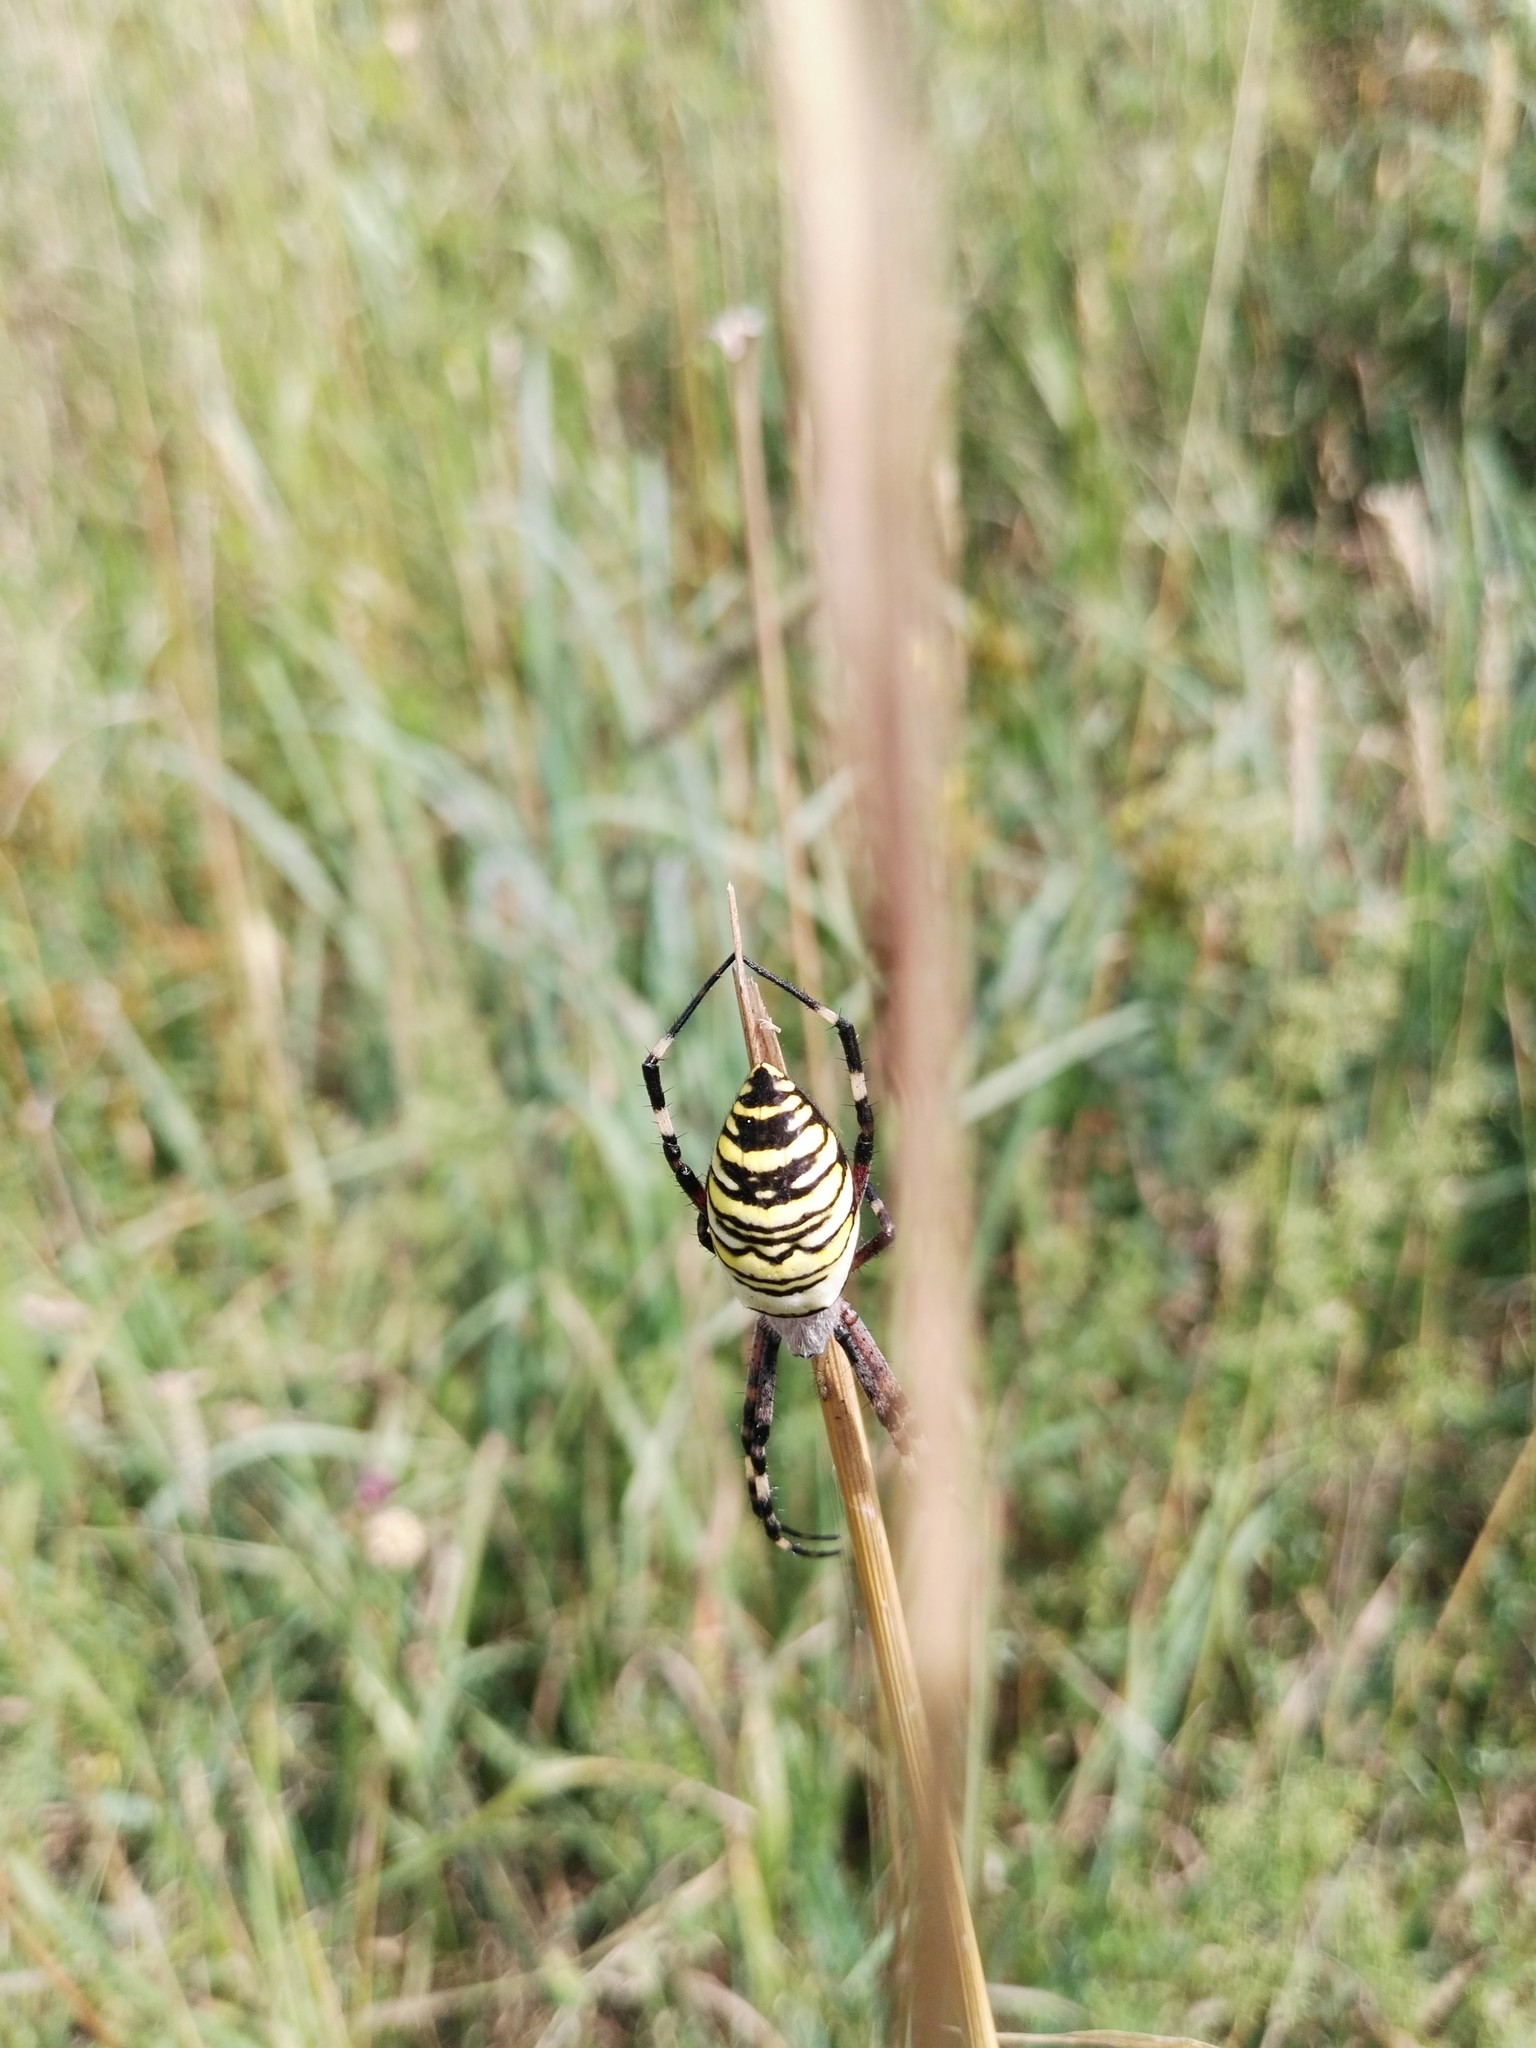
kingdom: Animalia
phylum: Arthropoda
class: Arachnida
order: Araneae
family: Araneidae
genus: Argiope
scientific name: Argiope bruennichi
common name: Wasp spider
